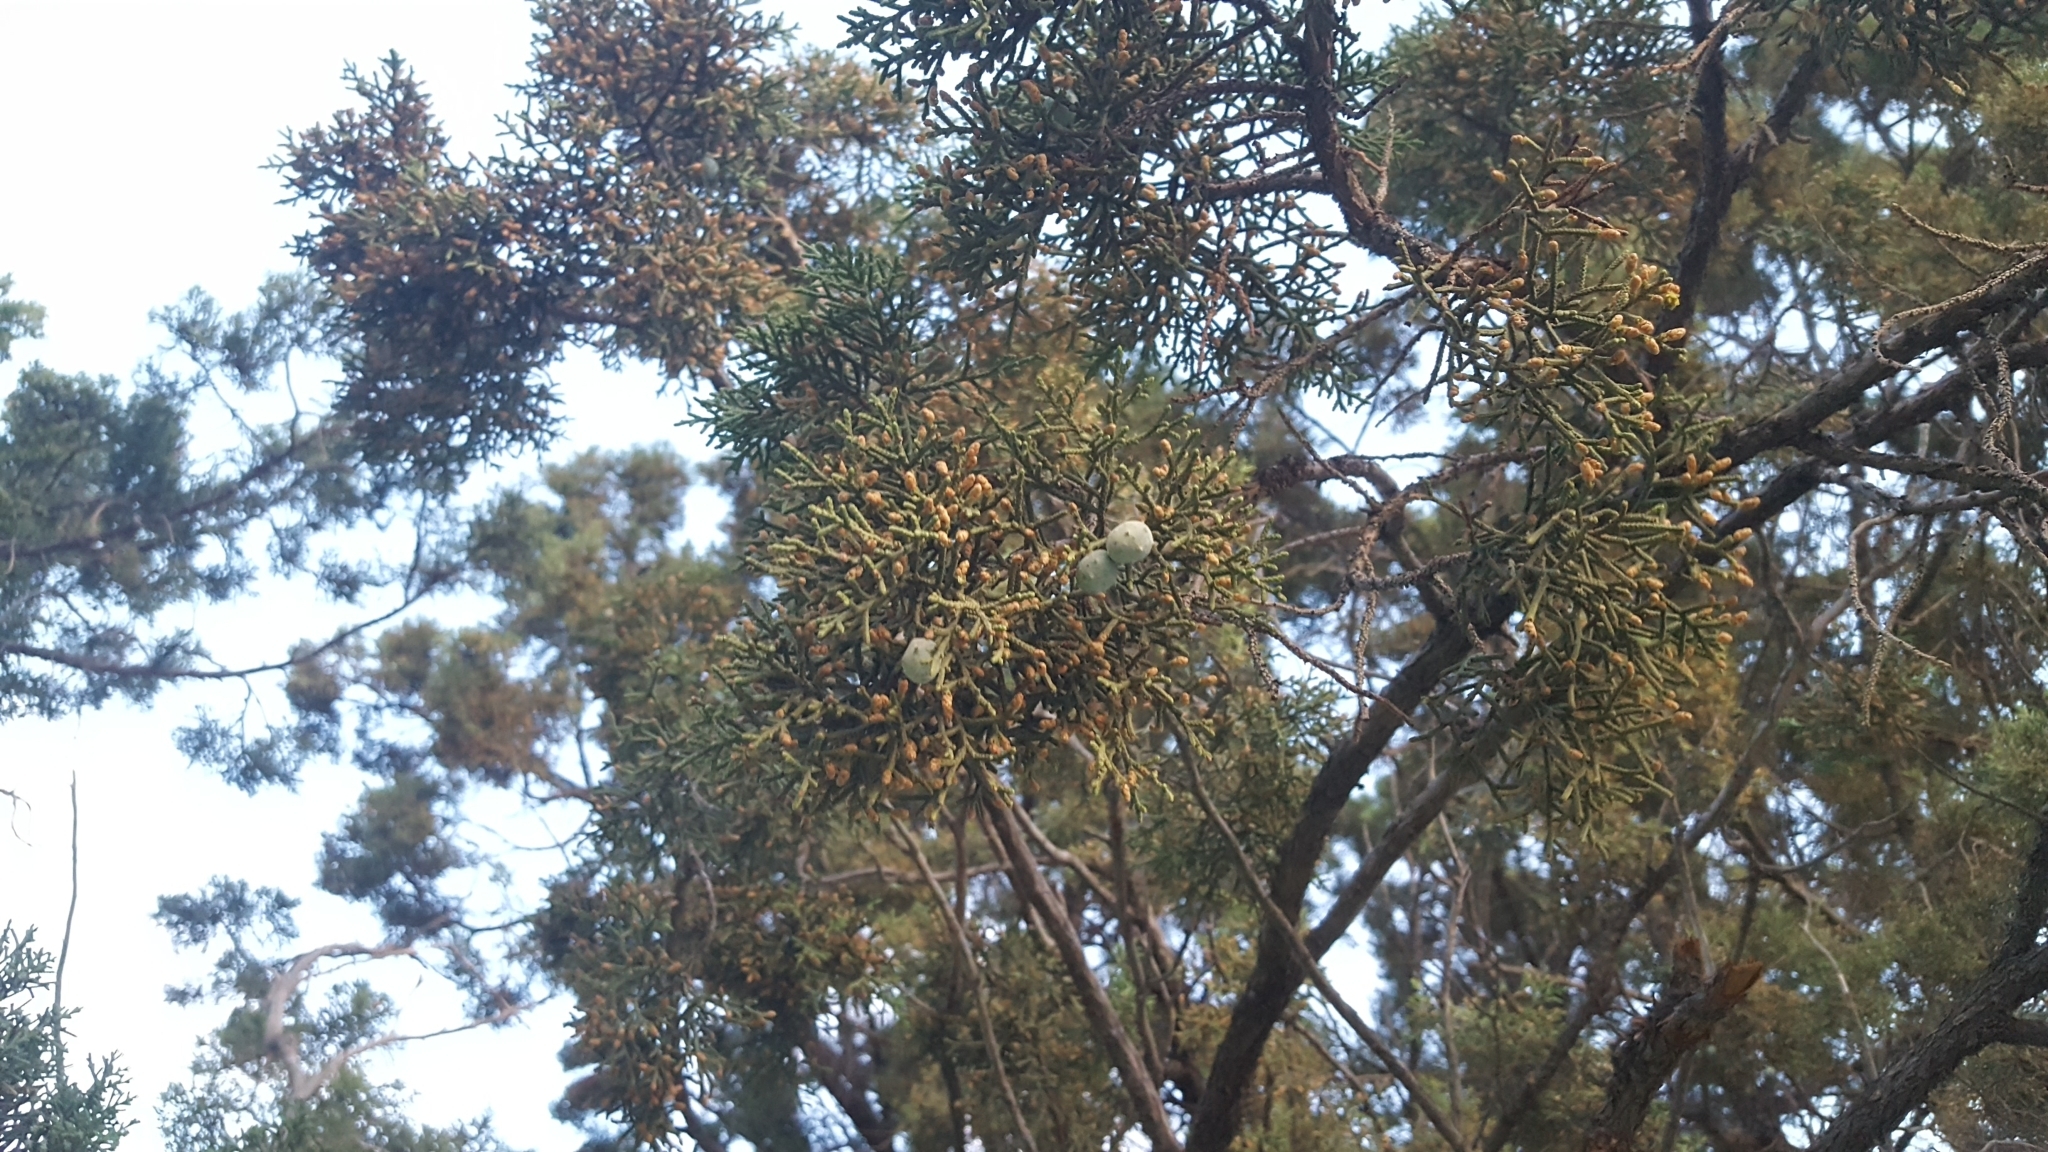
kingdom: Plantae
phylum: Tracheophyta
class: Pinopsida
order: Pinales
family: Cupressaceae
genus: Juniperus
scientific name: Juniperus californica
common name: California juniper
